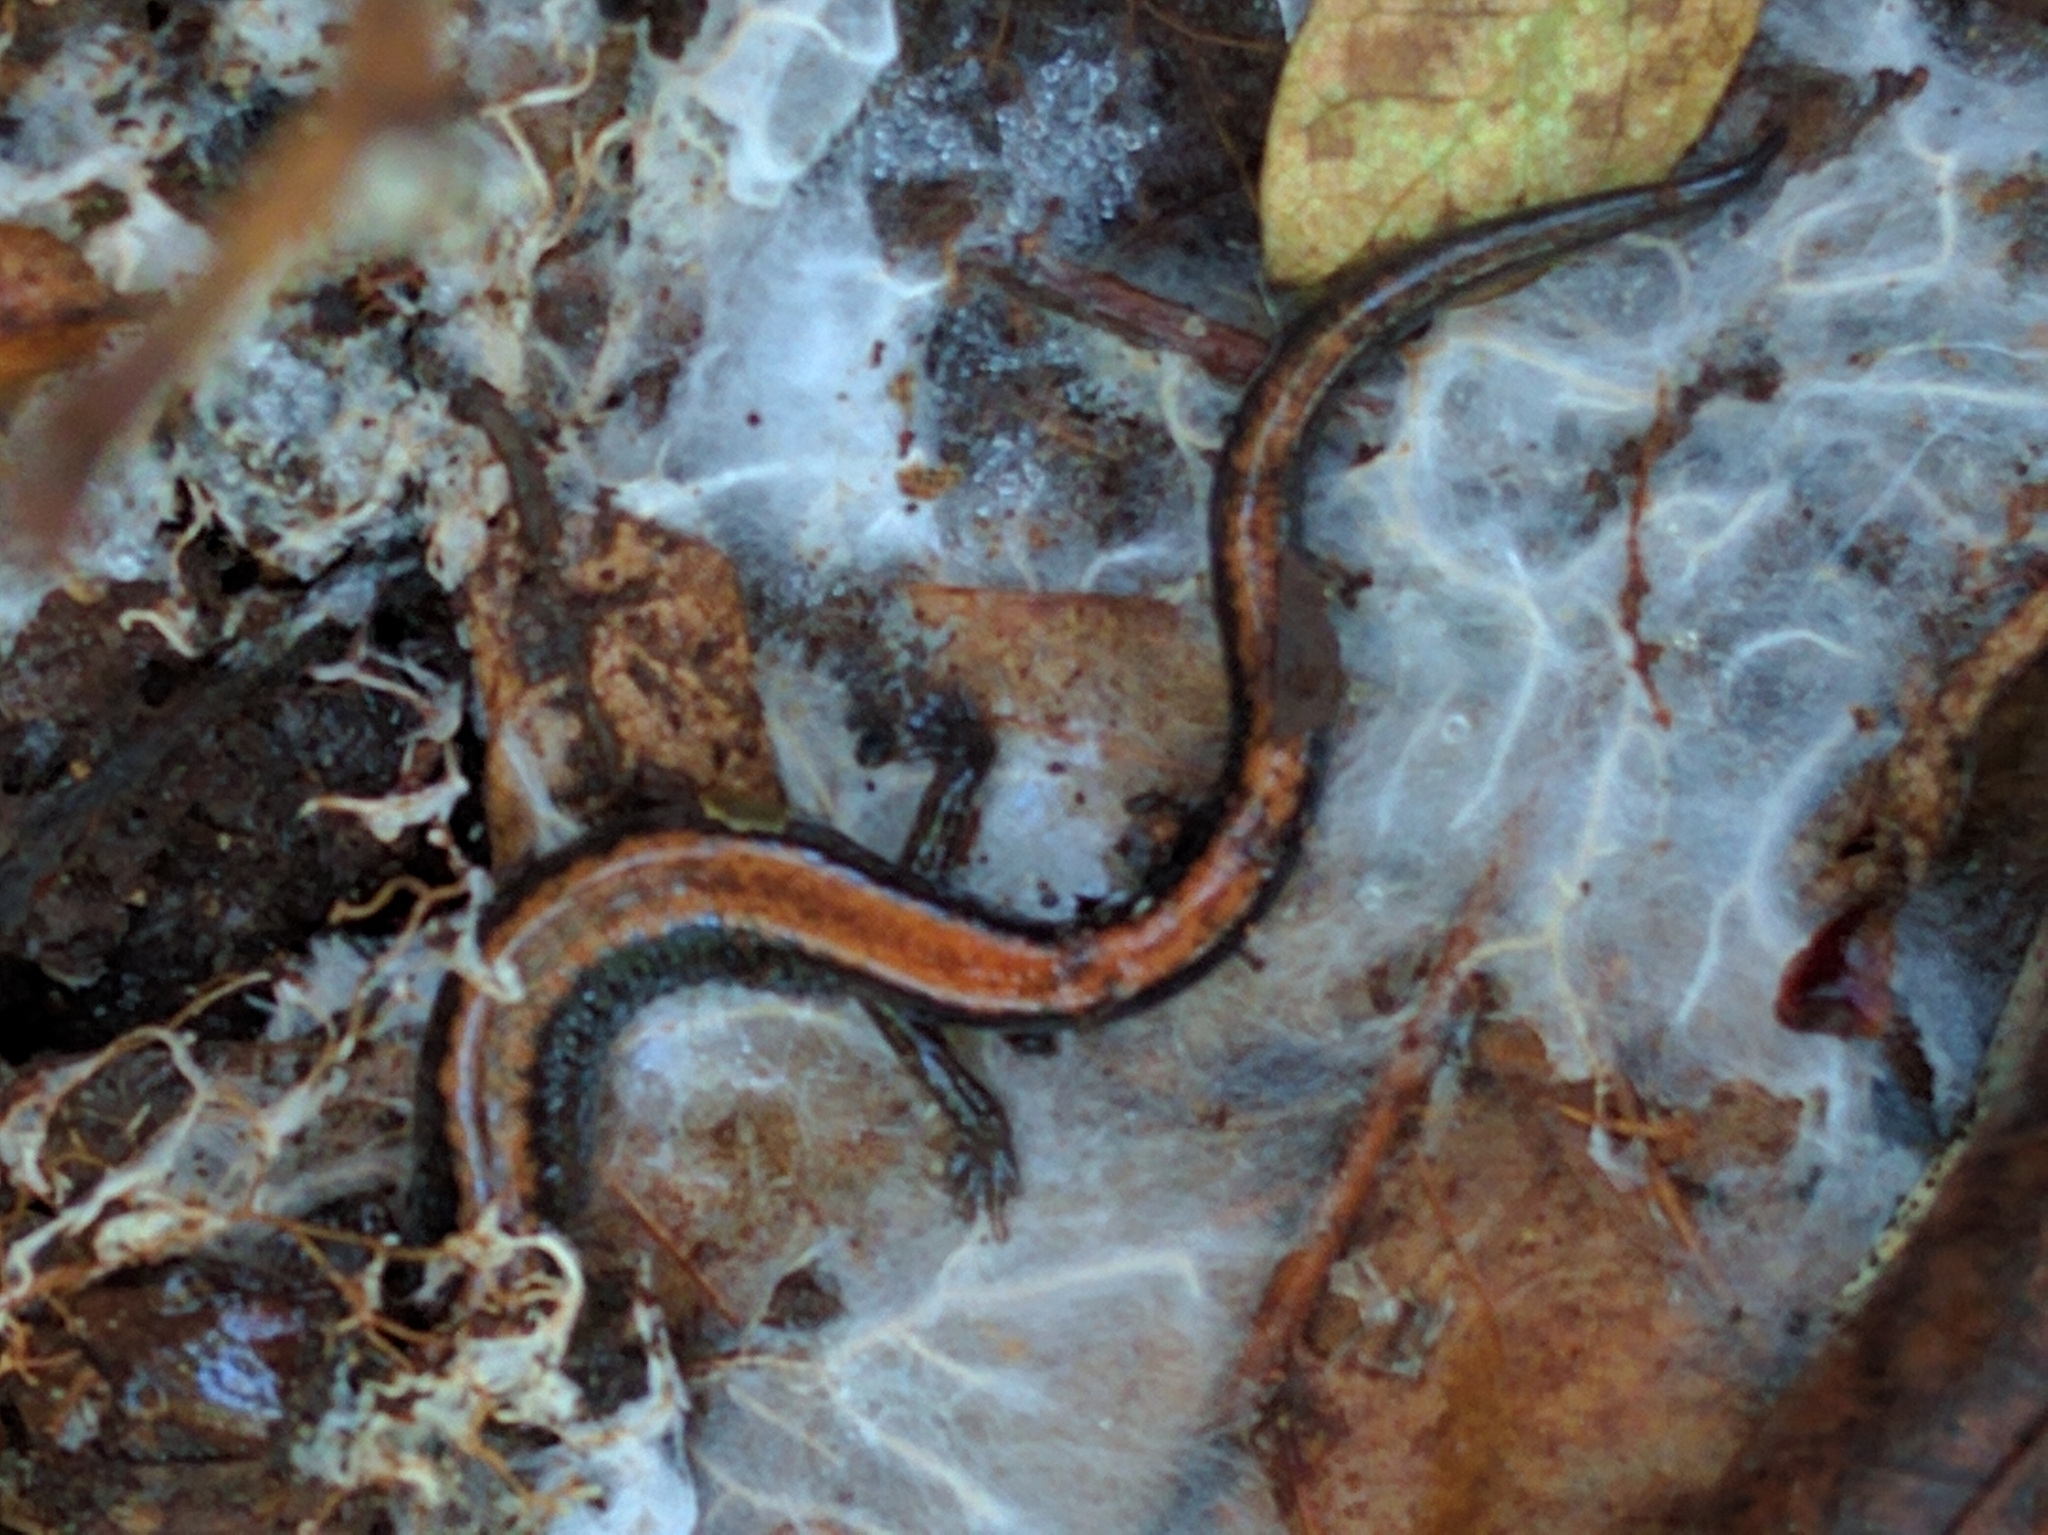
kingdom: Animalia
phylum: Chordata
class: Amphibia
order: Caudata
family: Plethodontidae
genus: Plethodon
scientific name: Plethodon cinereus
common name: Redback salamander
